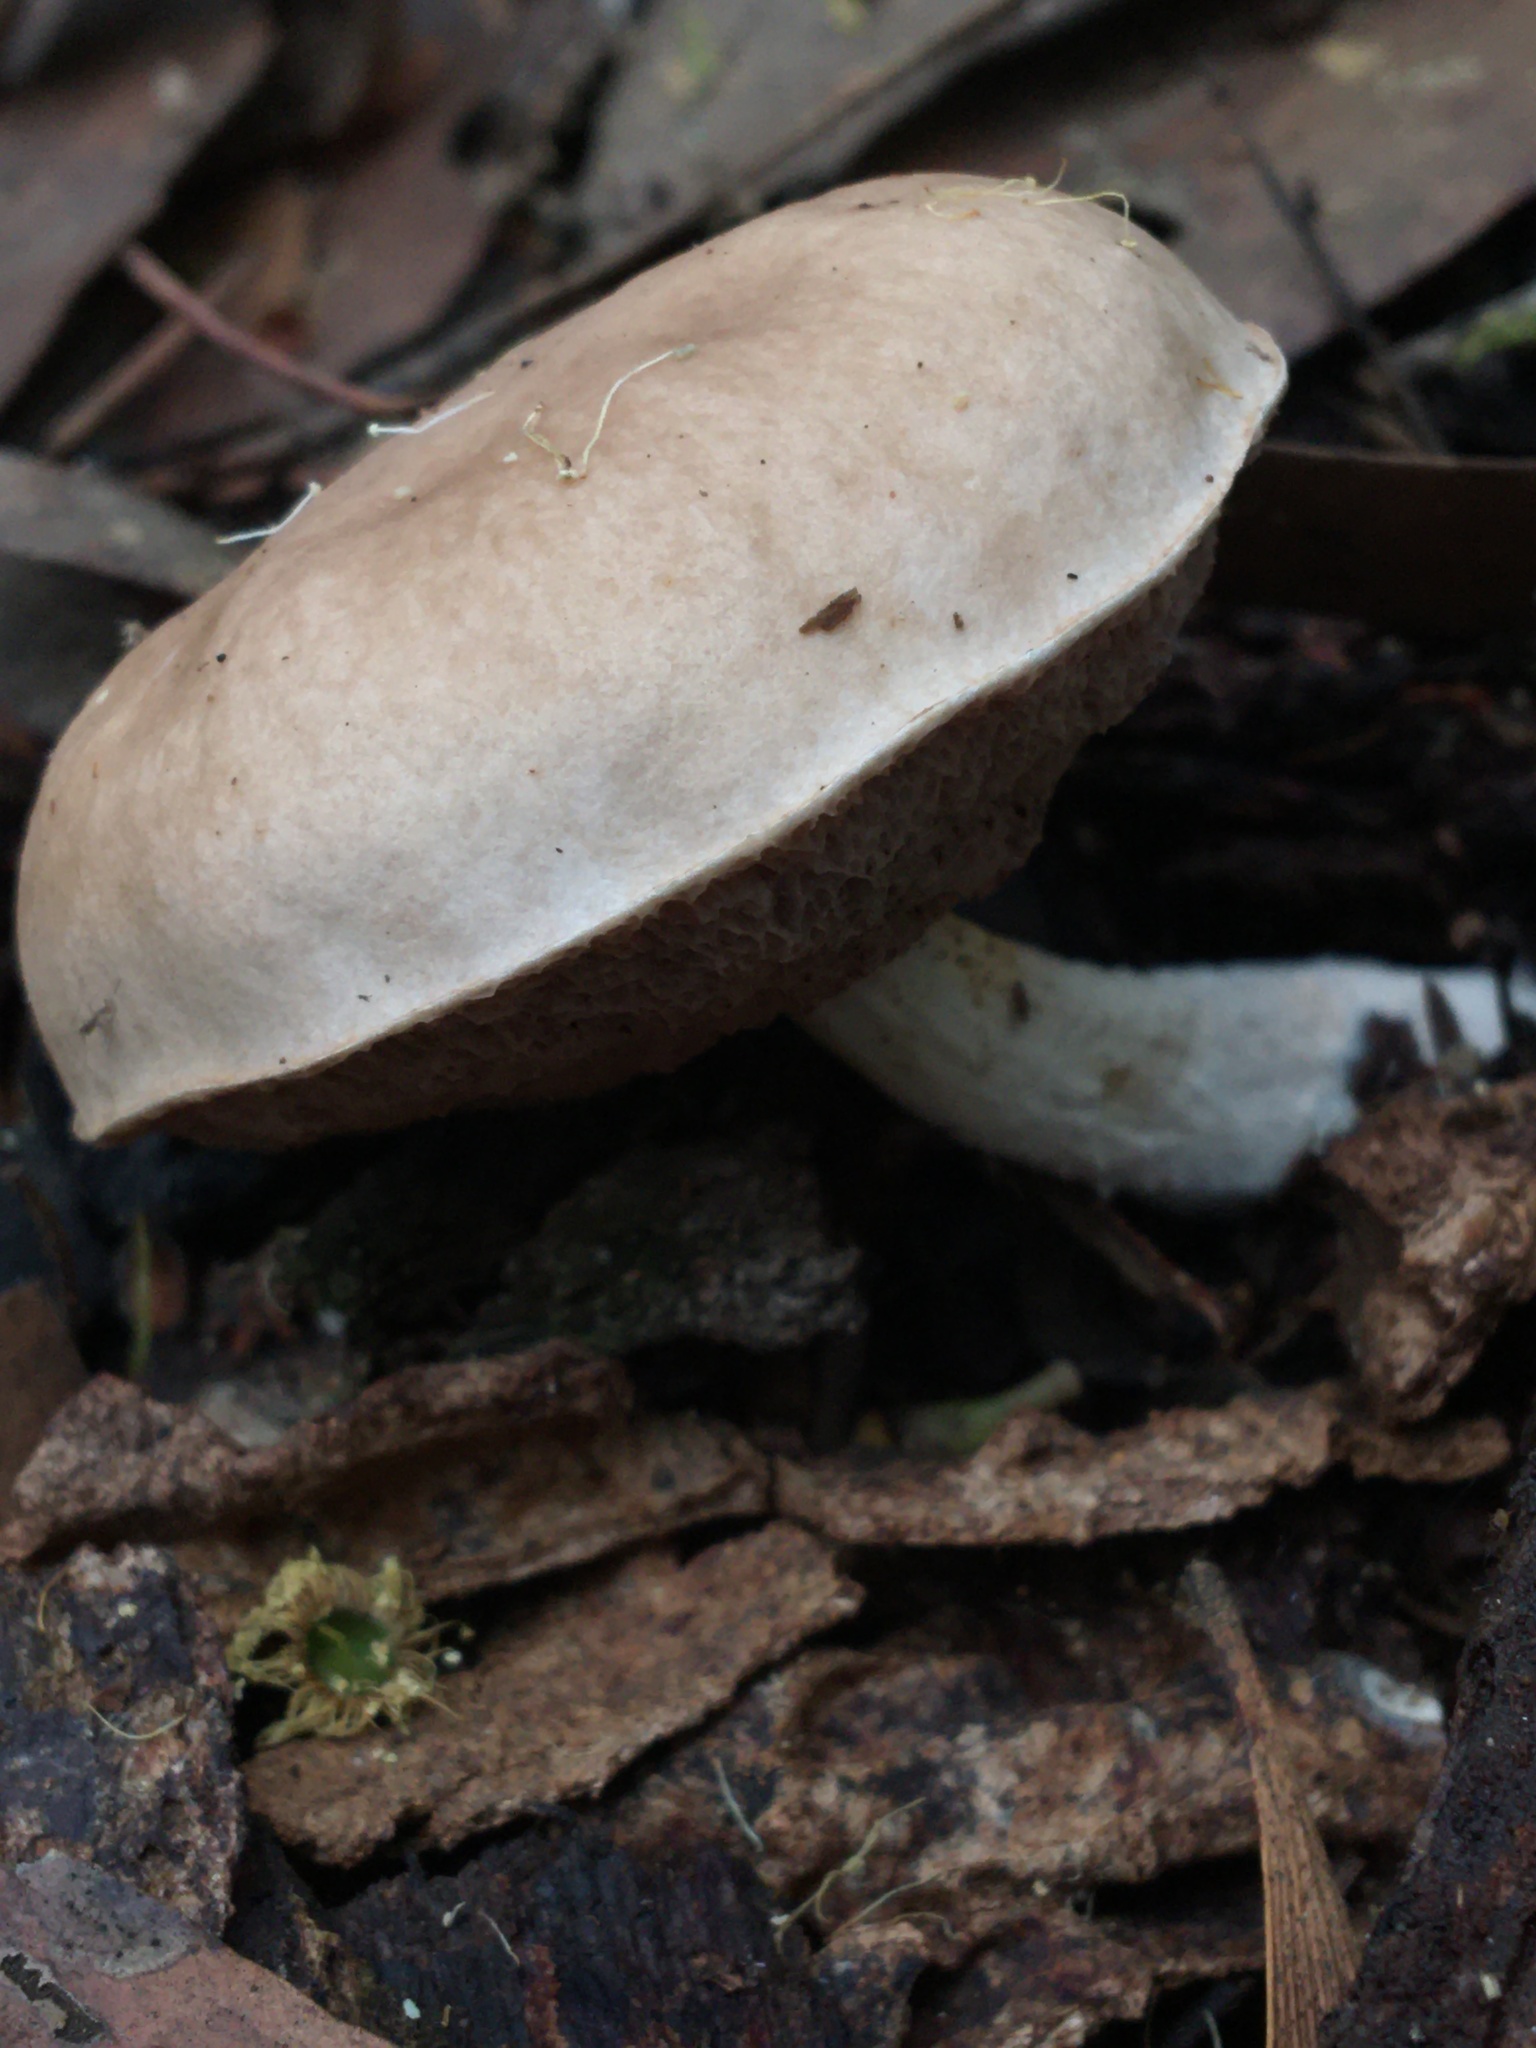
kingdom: Fungi
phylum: Basidiomycota
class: Agaricomycetes
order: Boletales
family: Boletaceae
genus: Fistulinella
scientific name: Fistulinella mollis
